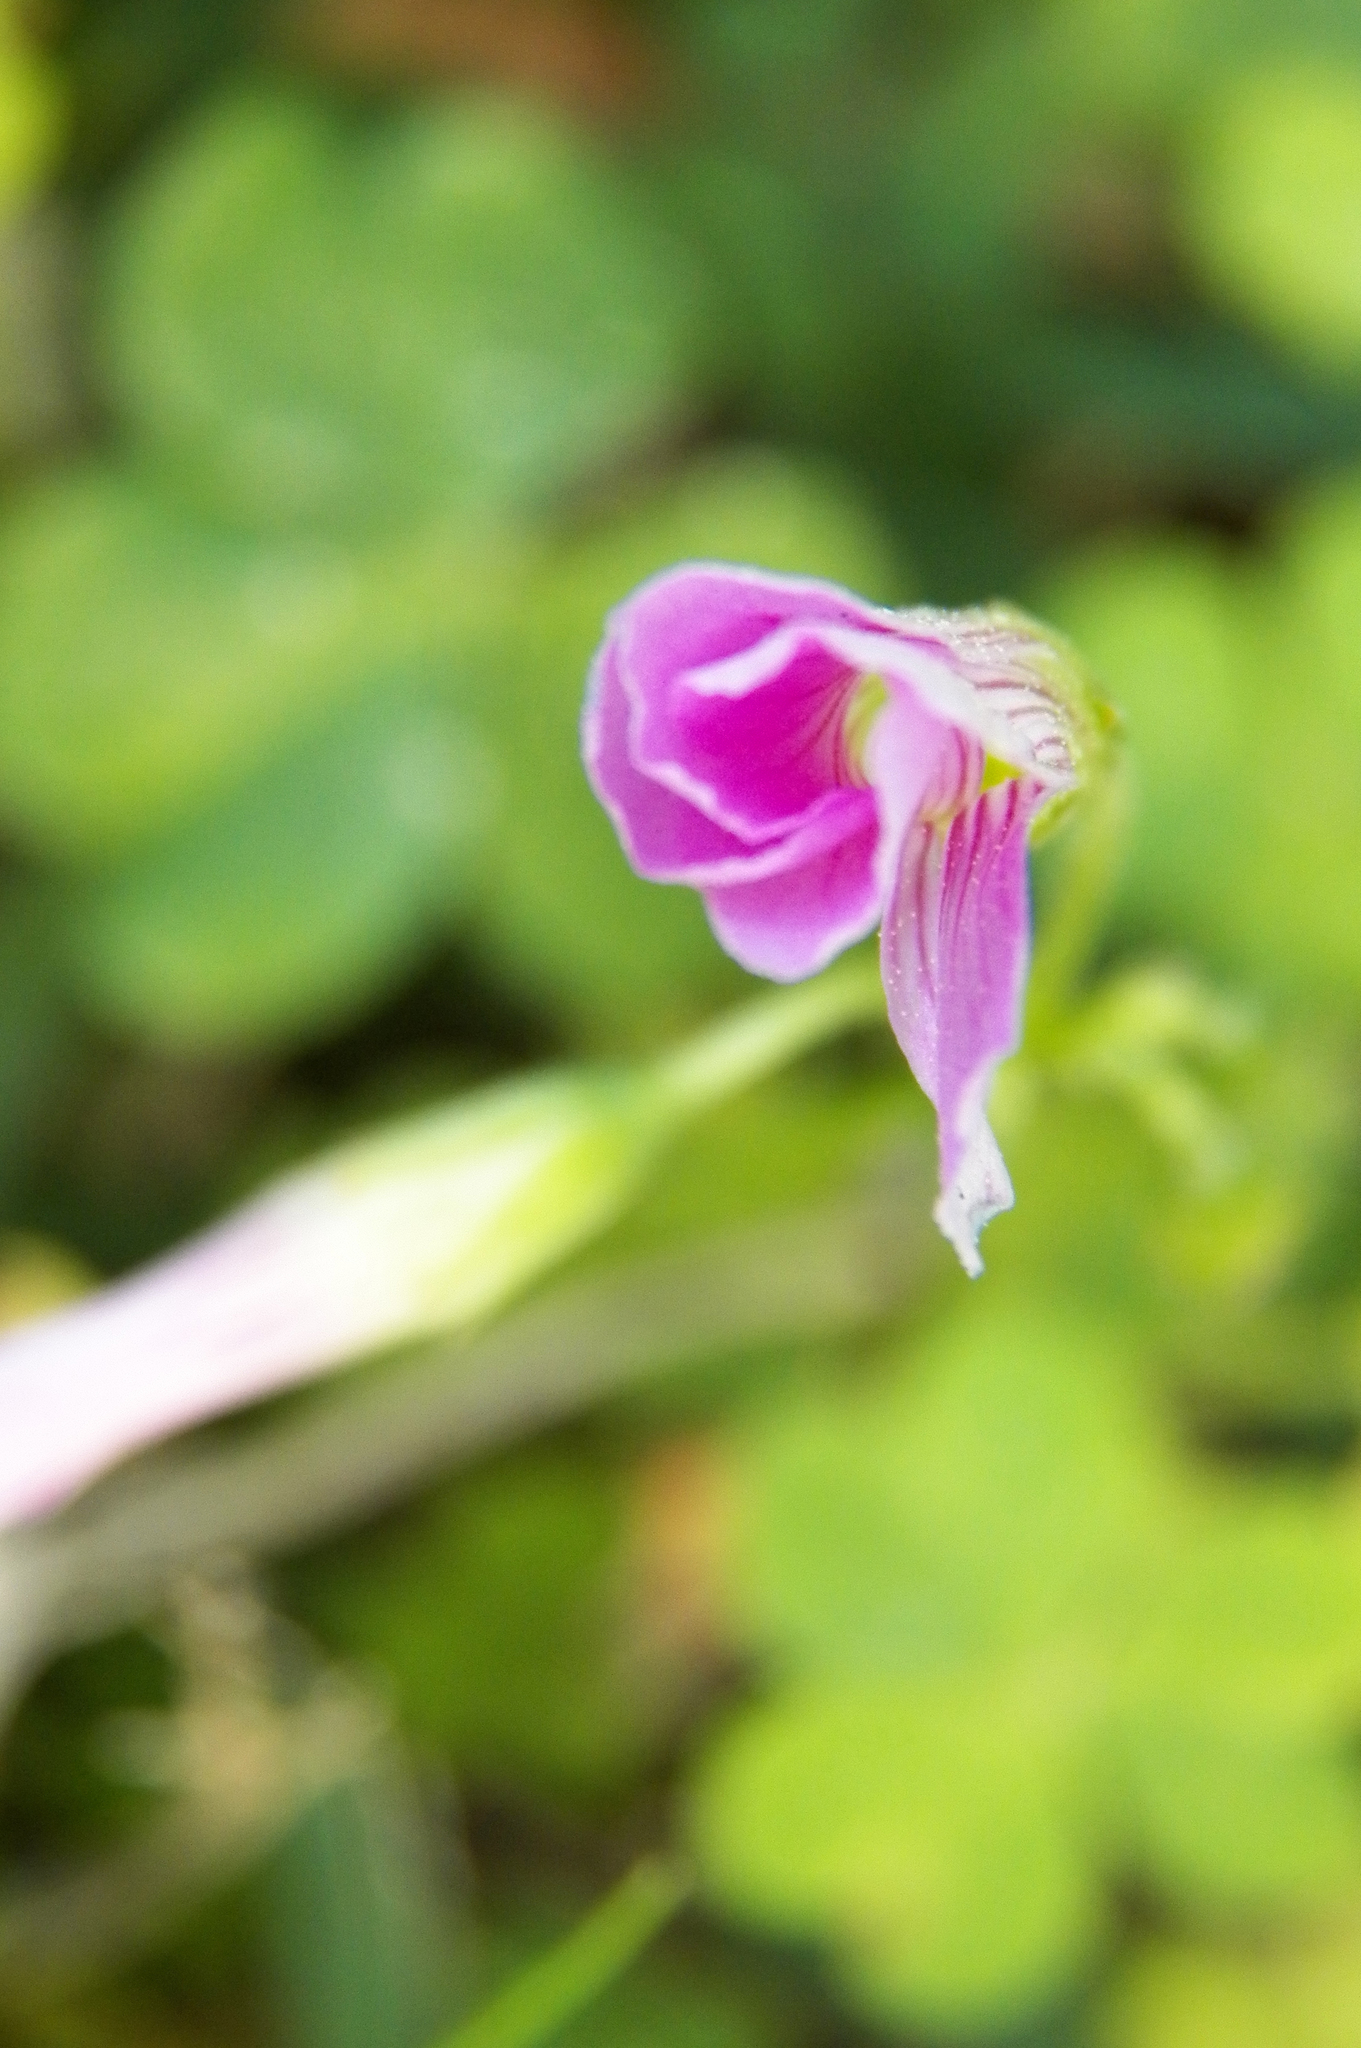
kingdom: Plantae
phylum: Tracheophyta
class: Magnoliopsida
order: Oxalidales
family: Oxalidaceae
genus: Oxalis
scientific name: Oxalis debilis
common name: Large-flowered pink-sorrel
